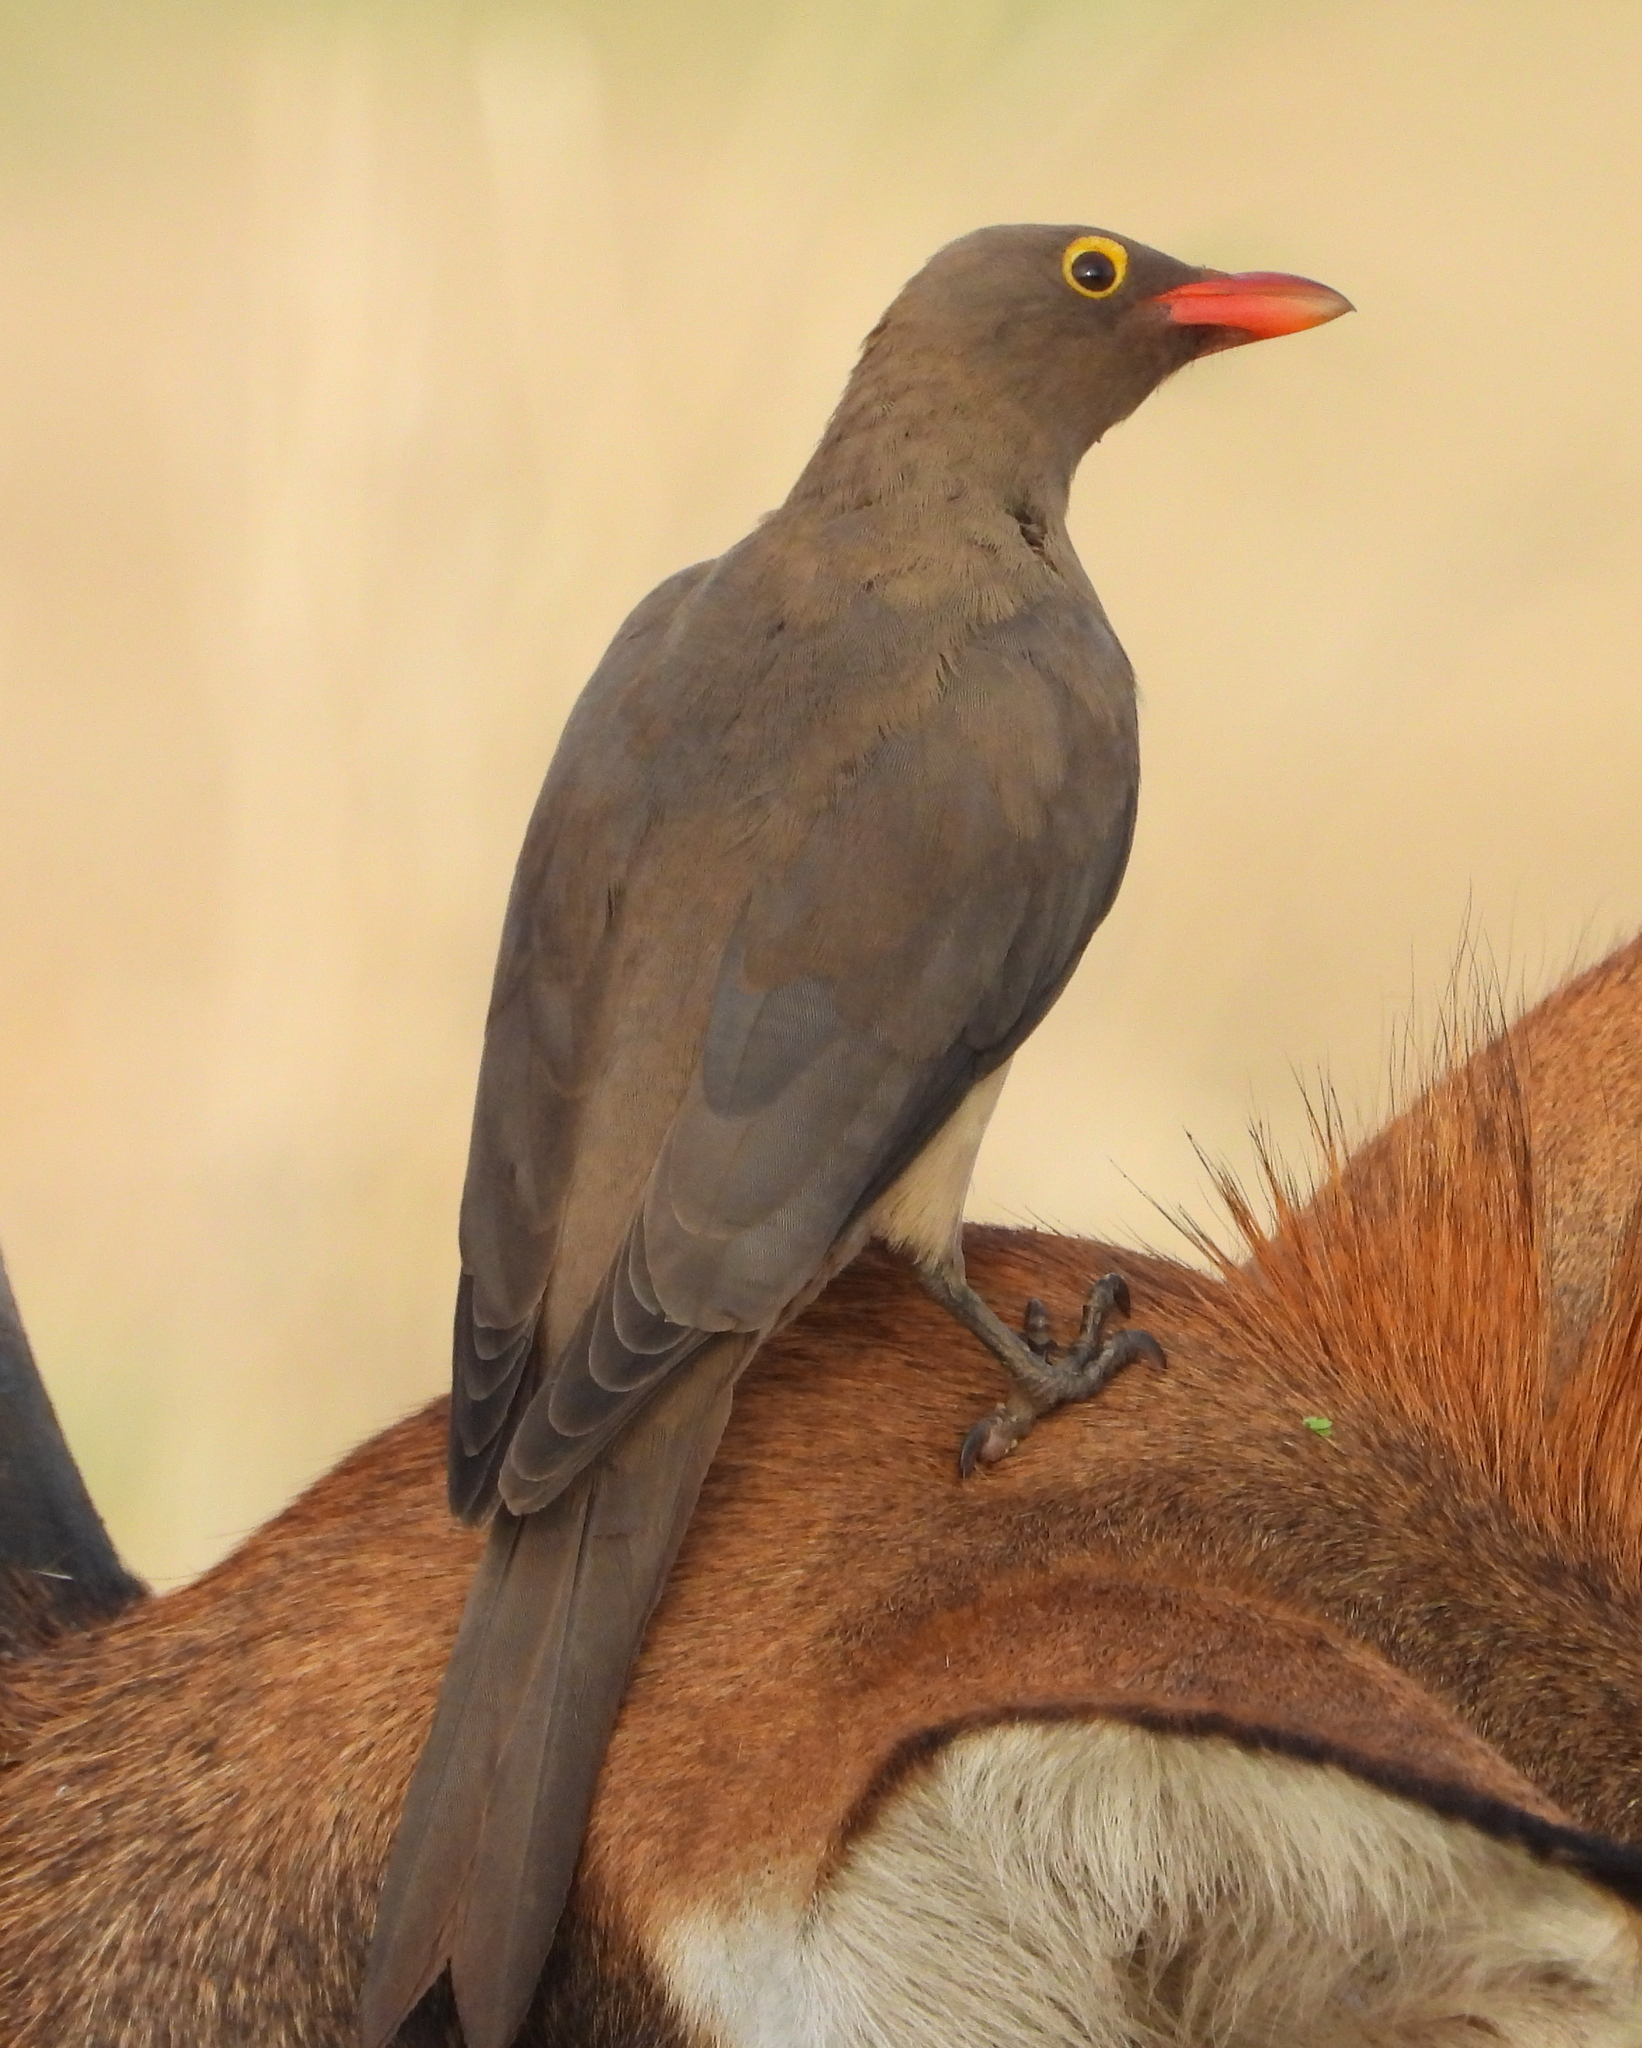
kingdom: Animalia
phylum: Chordata
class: Aves
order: Passeriformes
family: Buphagidae
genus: Buphagus
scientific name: Buphagus erythrorhynchus
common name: Red-billed oxpecker
